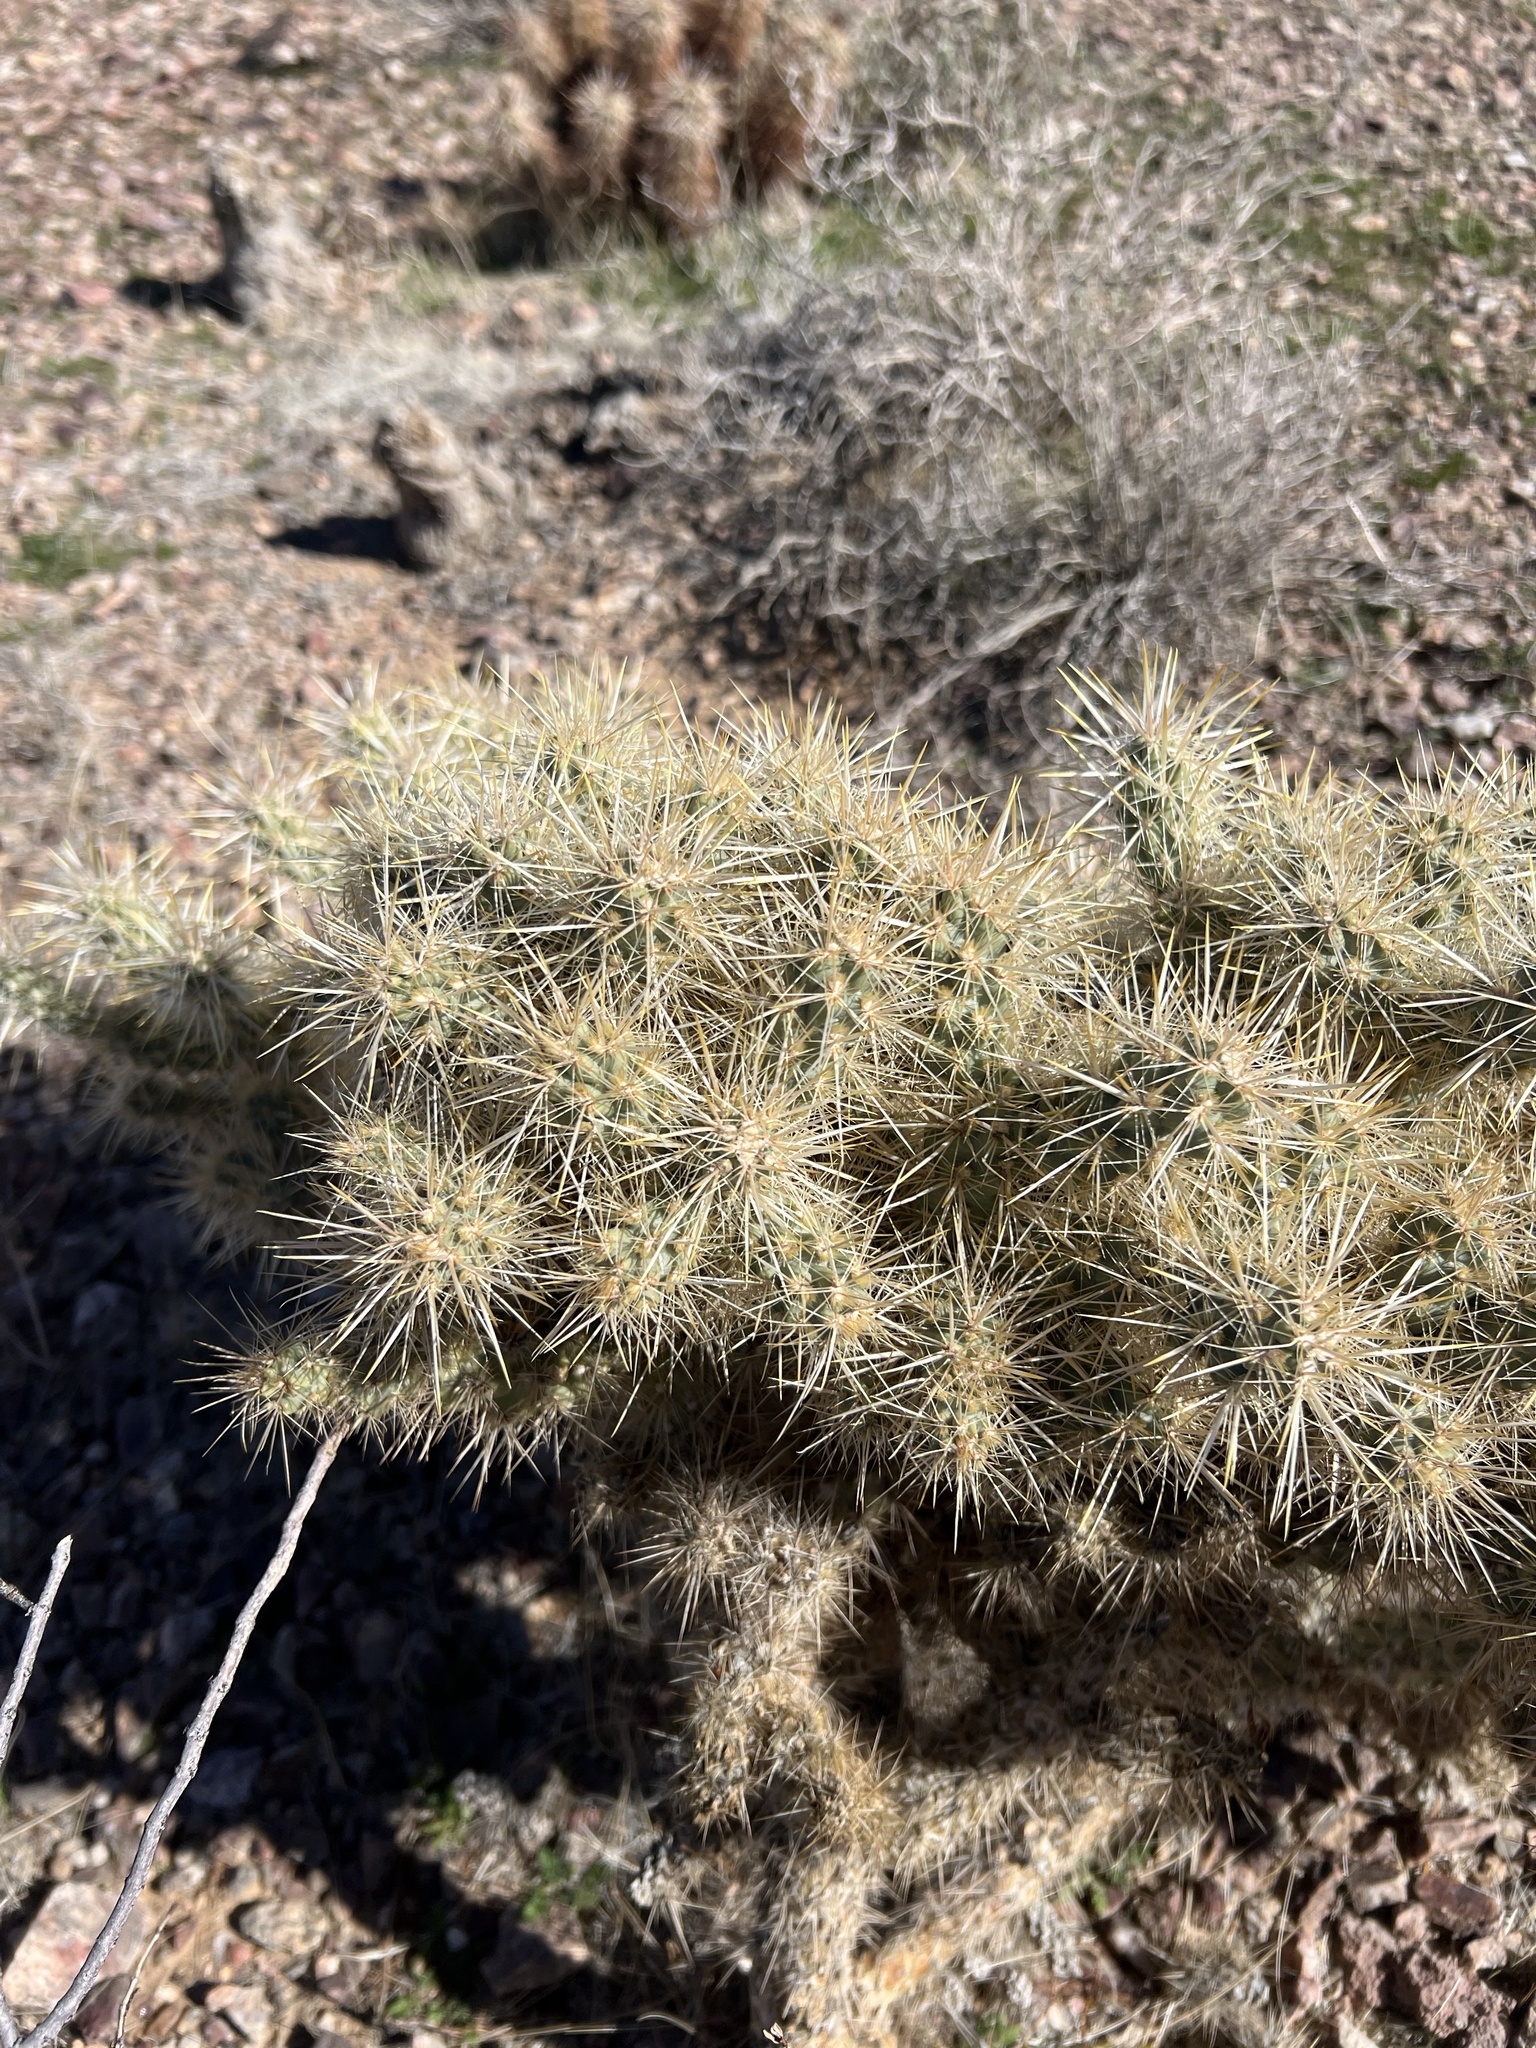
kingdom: Plantae
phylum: Tracheophyta
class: Magnoliopsida
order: Caryophyllales
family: Cactaceae
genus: Cylindropuntia
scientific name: Cylindropuntia echinocarpa
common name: Ground cholla
